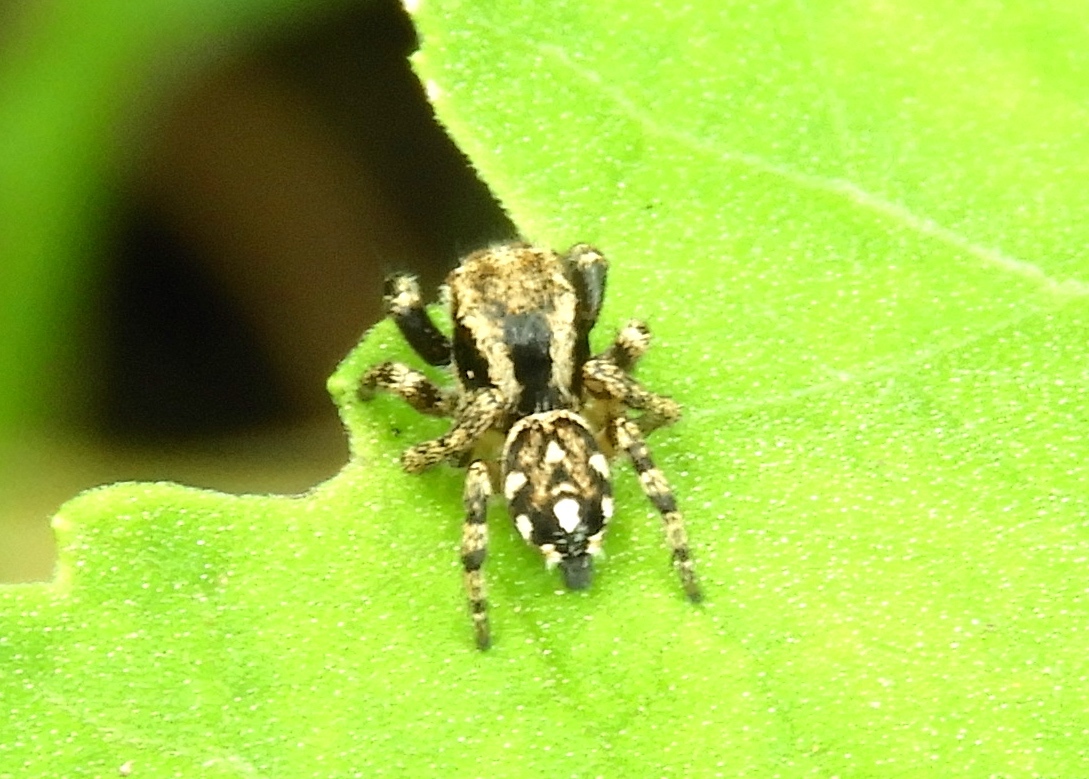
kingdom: Animalia
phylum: Arthropoda
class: Arachnida
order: Araneae
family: Salticidae
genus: Habronattus
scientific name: Habronattus
